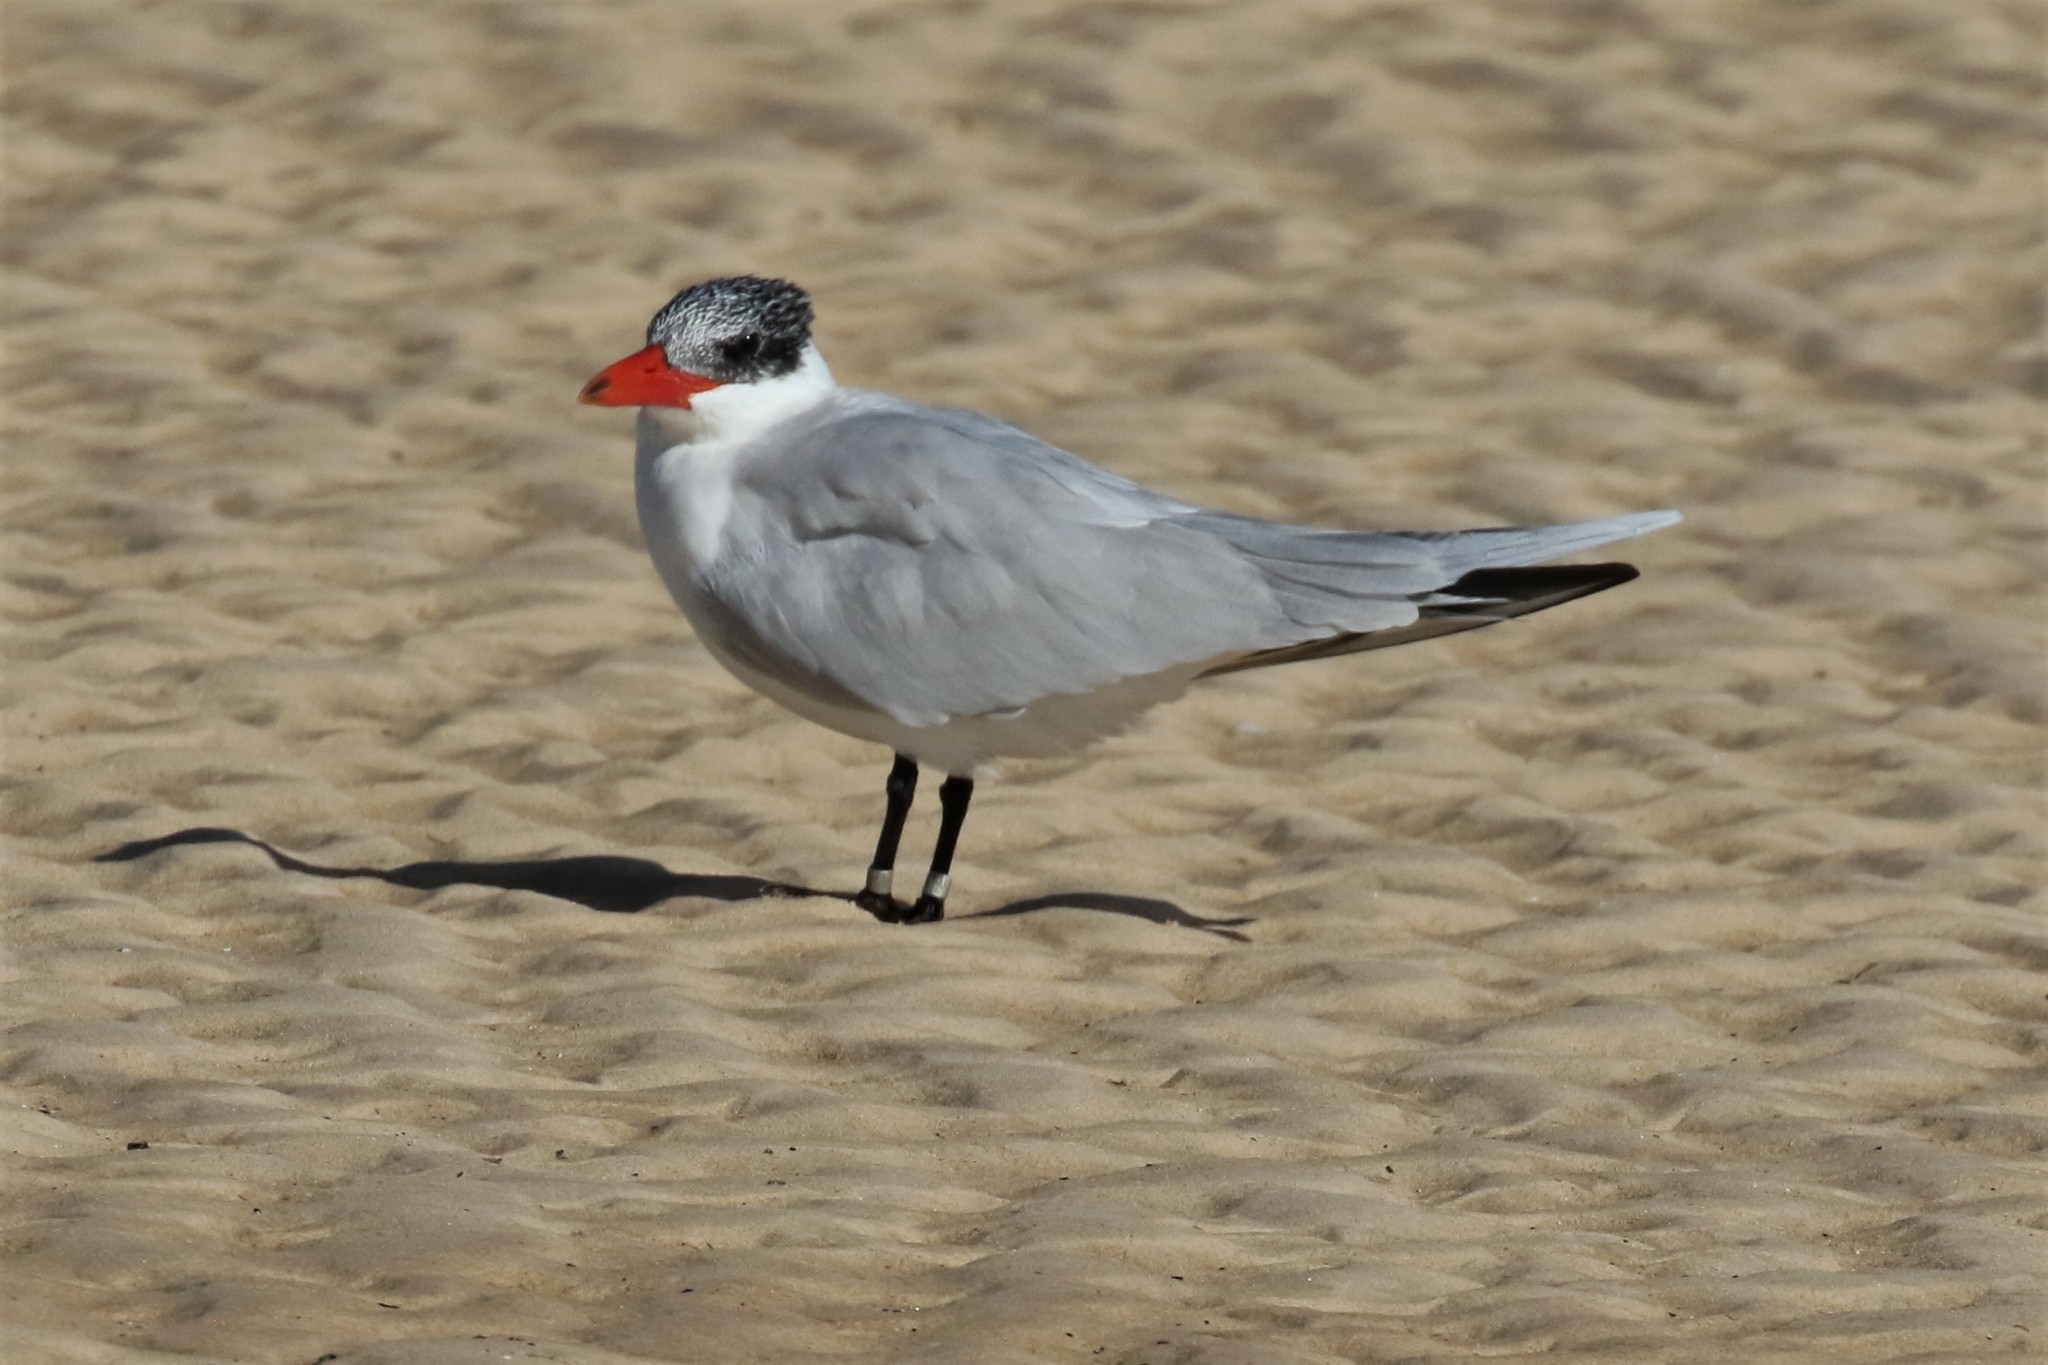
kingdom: Animalia
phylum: Chordata
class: Aves
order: Charadriiformes
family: Laridae
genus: Hydroprogne
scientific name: Hydroprogne caspia
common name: Caspian tern
